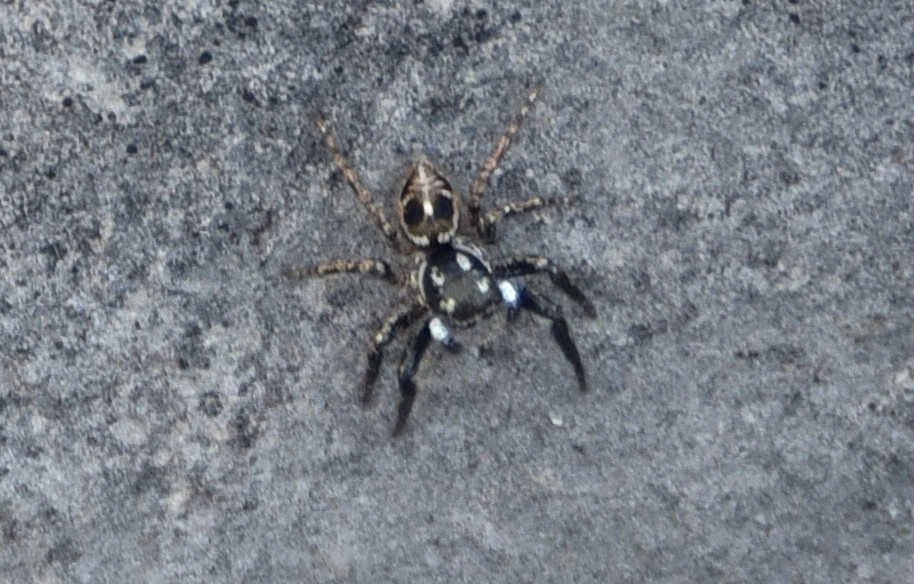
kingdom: Animalia
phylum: Arthropoda
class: Arachnida
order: Araneae
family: Salticidae
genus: Anasaitis
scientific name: Anasaitis canosa
